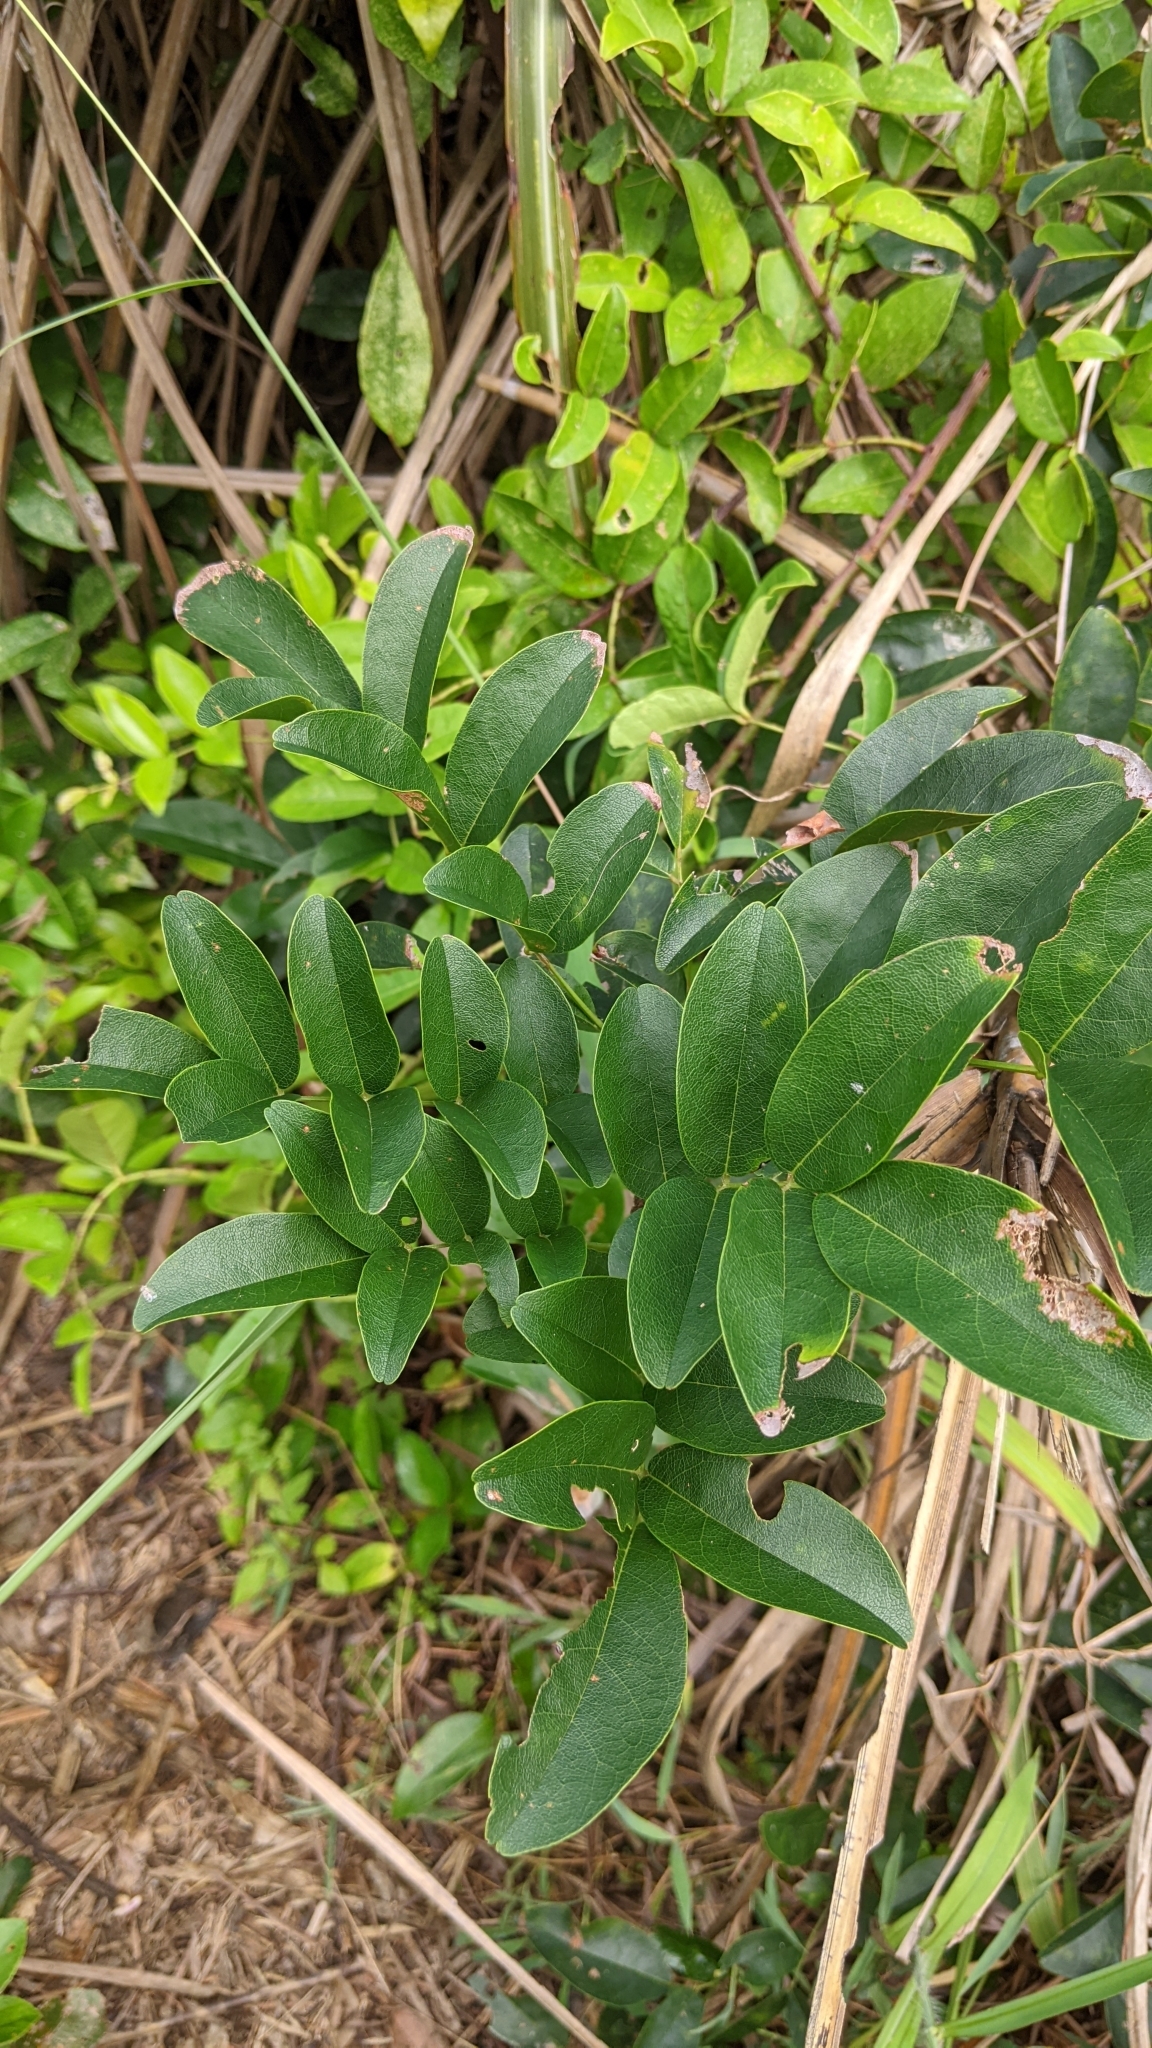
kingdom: Plantae
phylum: Tracheophyta
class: Magnoliopsida
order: Fabales
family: Fabaceae
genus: Wisteriopsis
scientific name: Wisteriopsis reticulata
